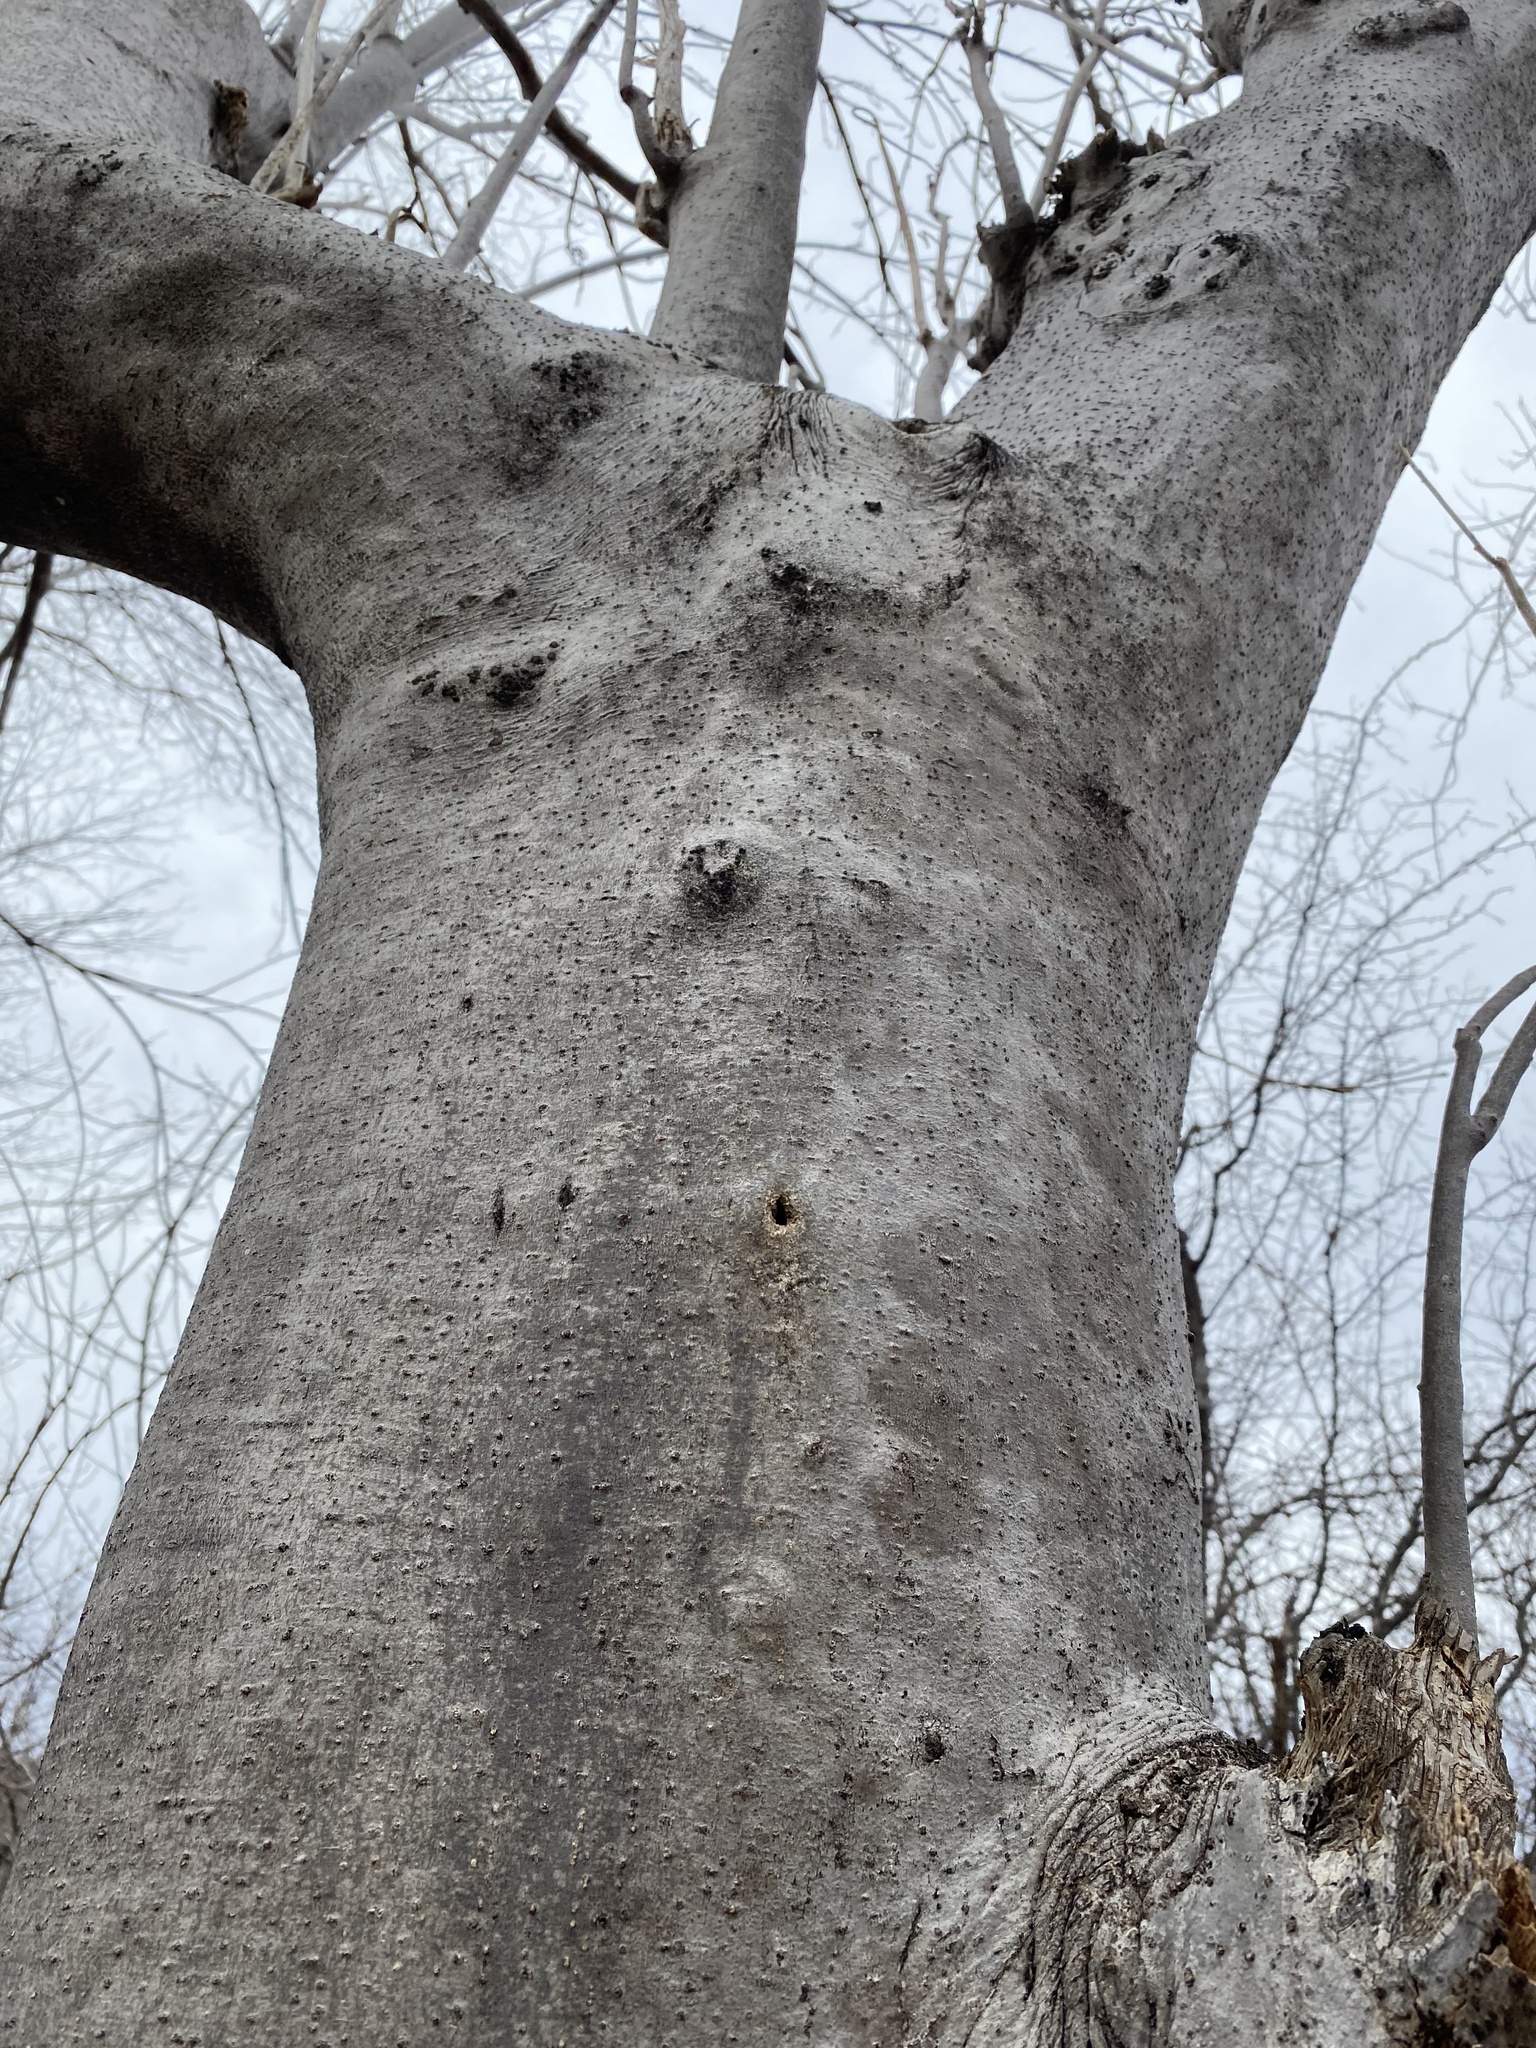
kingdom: Plantae
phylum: Tracheophyta
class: Magnoliopsida
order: Solanales
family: Convolvulaceae
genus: Ipomoea
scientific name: Ipomoea arborescens
